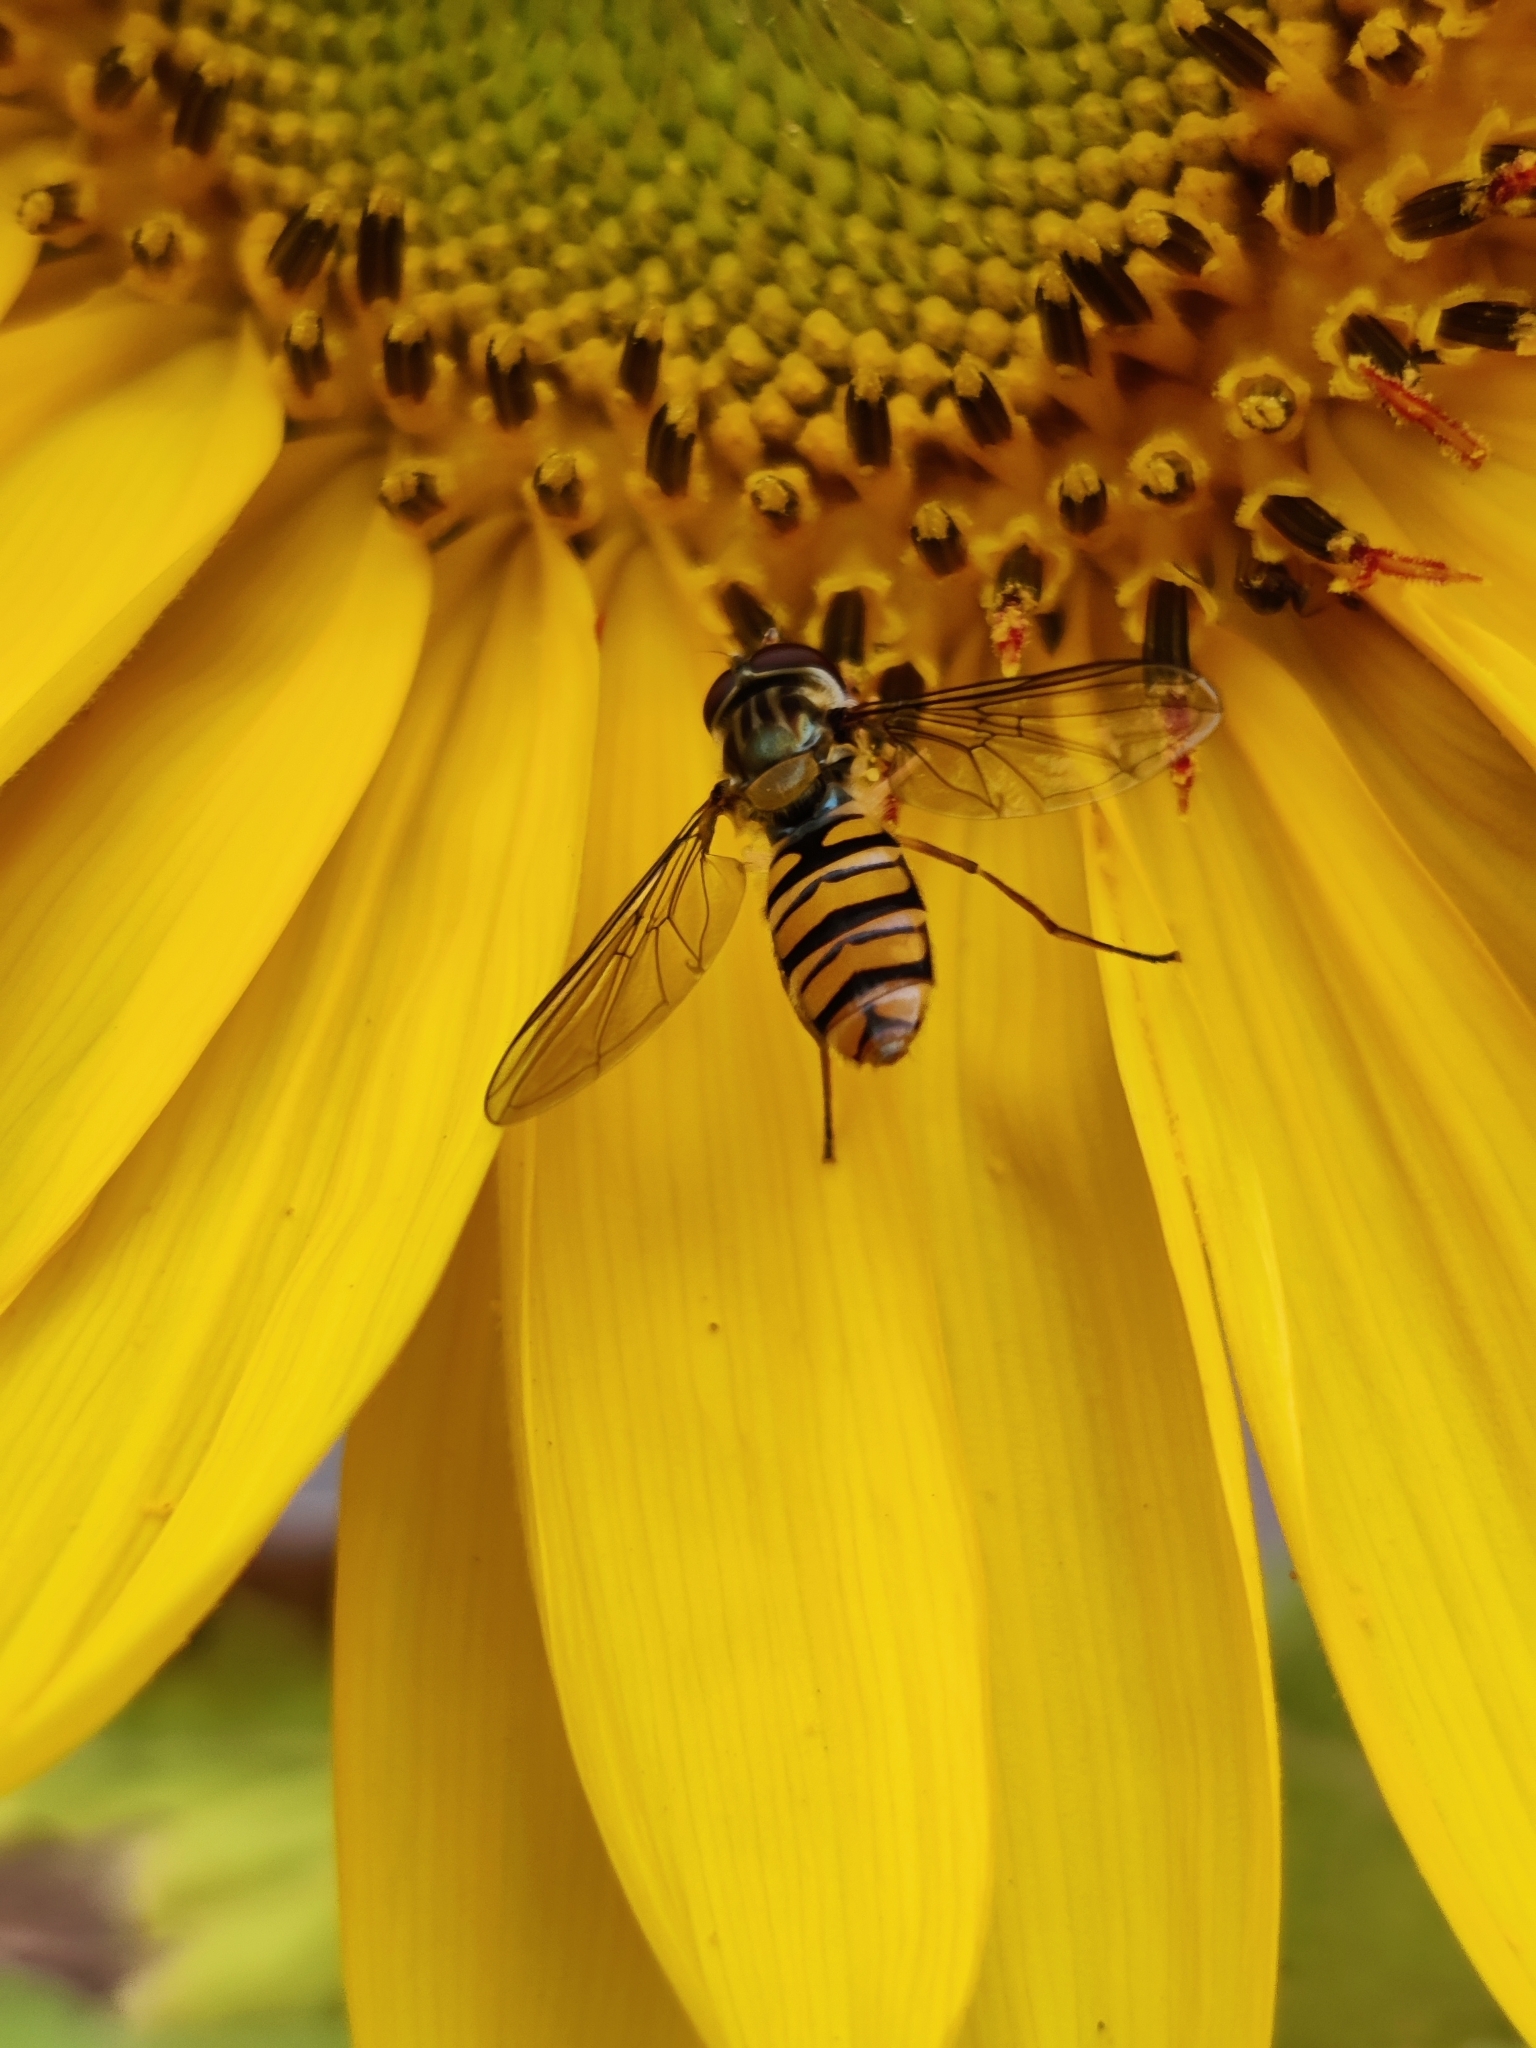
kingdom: Animalia
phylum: Arthropoda
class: Insecta
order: Diptera
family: Syrphidae
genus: Episyrphus
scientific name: Episyrphus balteatus
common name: Marmalade hoverfly
